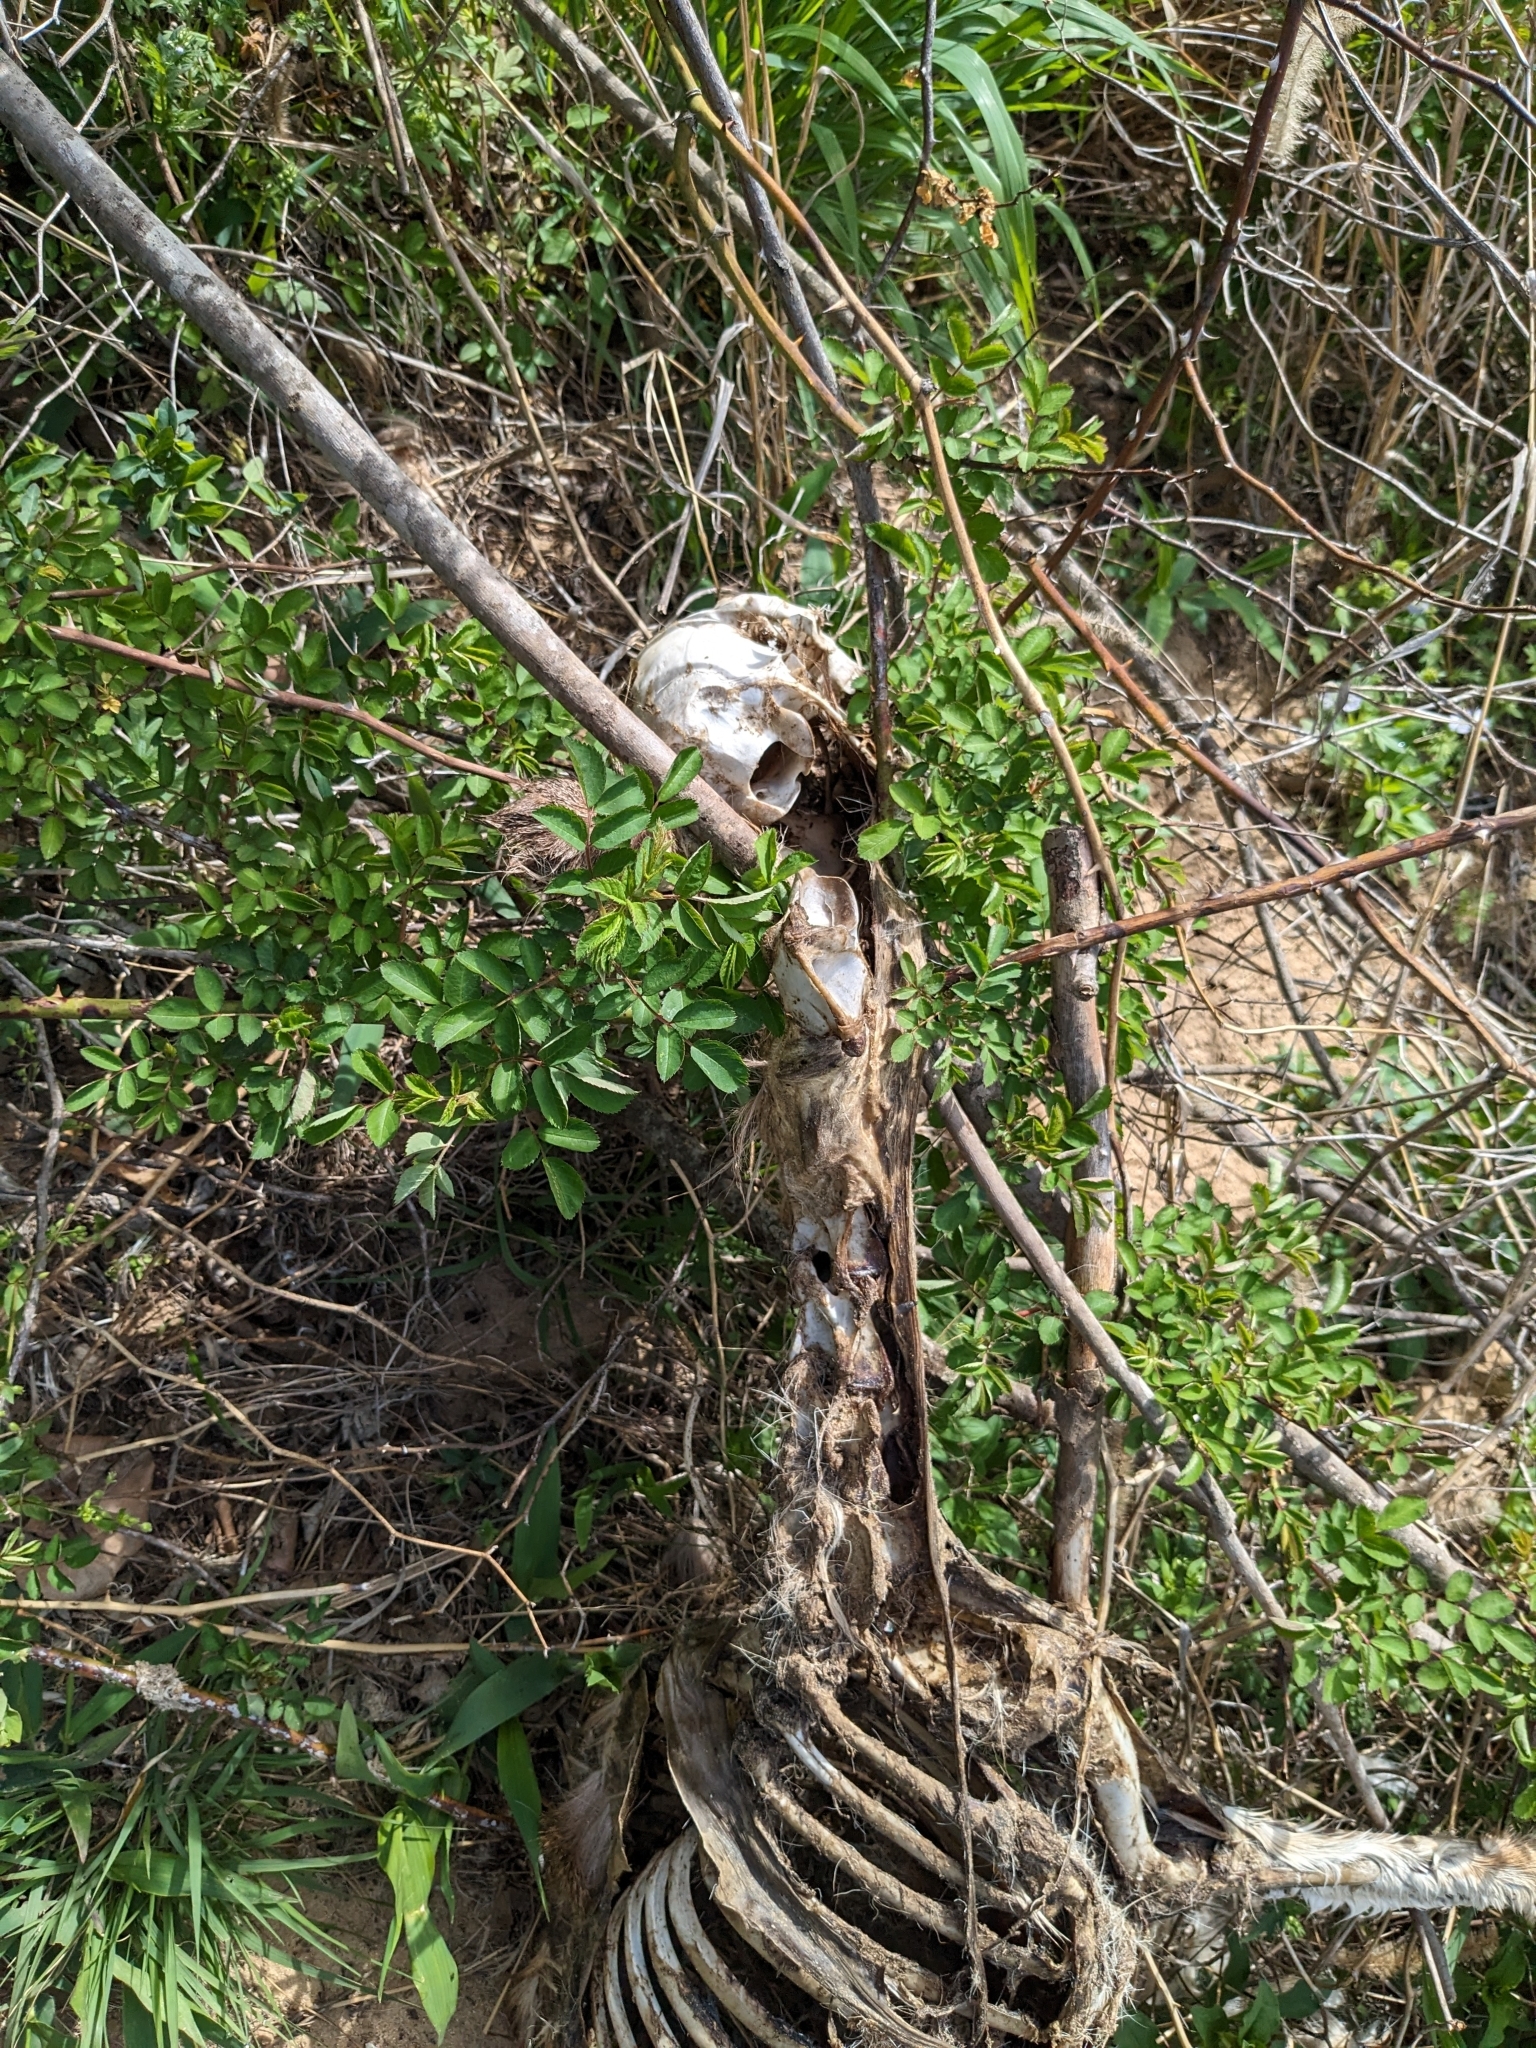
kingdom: Animalia
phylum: Chordata
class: Mammalia
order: Artiodactyla
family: Cervidae
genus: Odocoileus
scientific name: Odocoileus virginianus
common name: White-tailed deer
